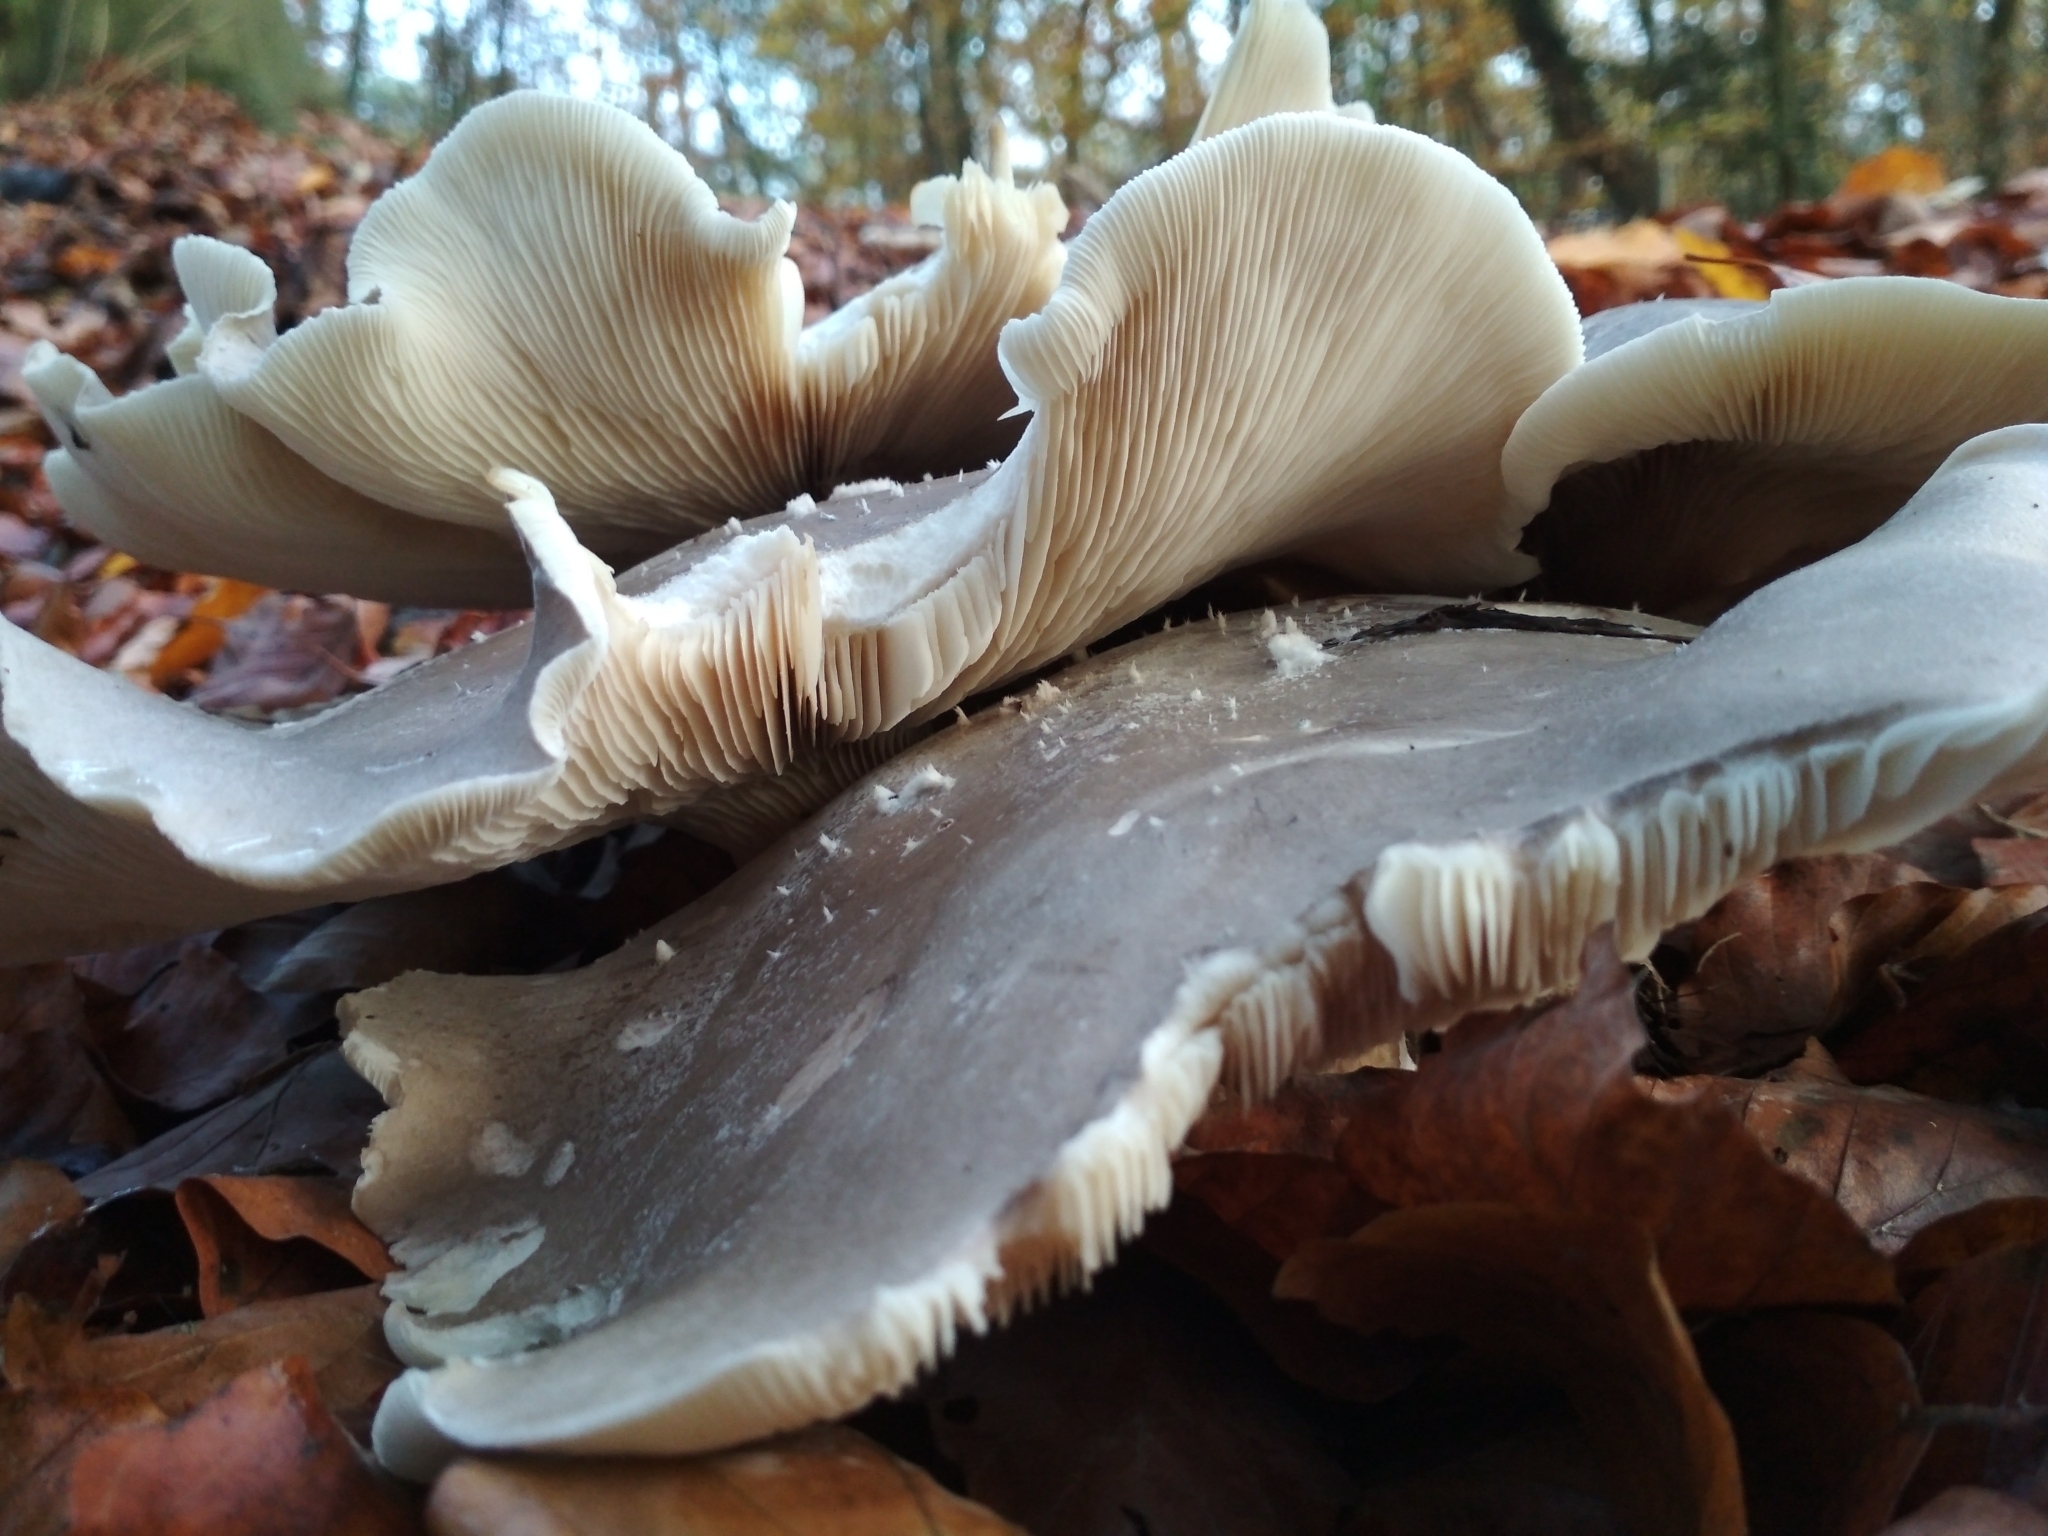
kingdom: Fungi
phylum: Basidiomycota
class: Agaricomycetes
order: Agaricales
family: Tricholomataceae
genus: Clitocybe
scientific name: Clitocybe nebularis
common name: Clouded agaric
